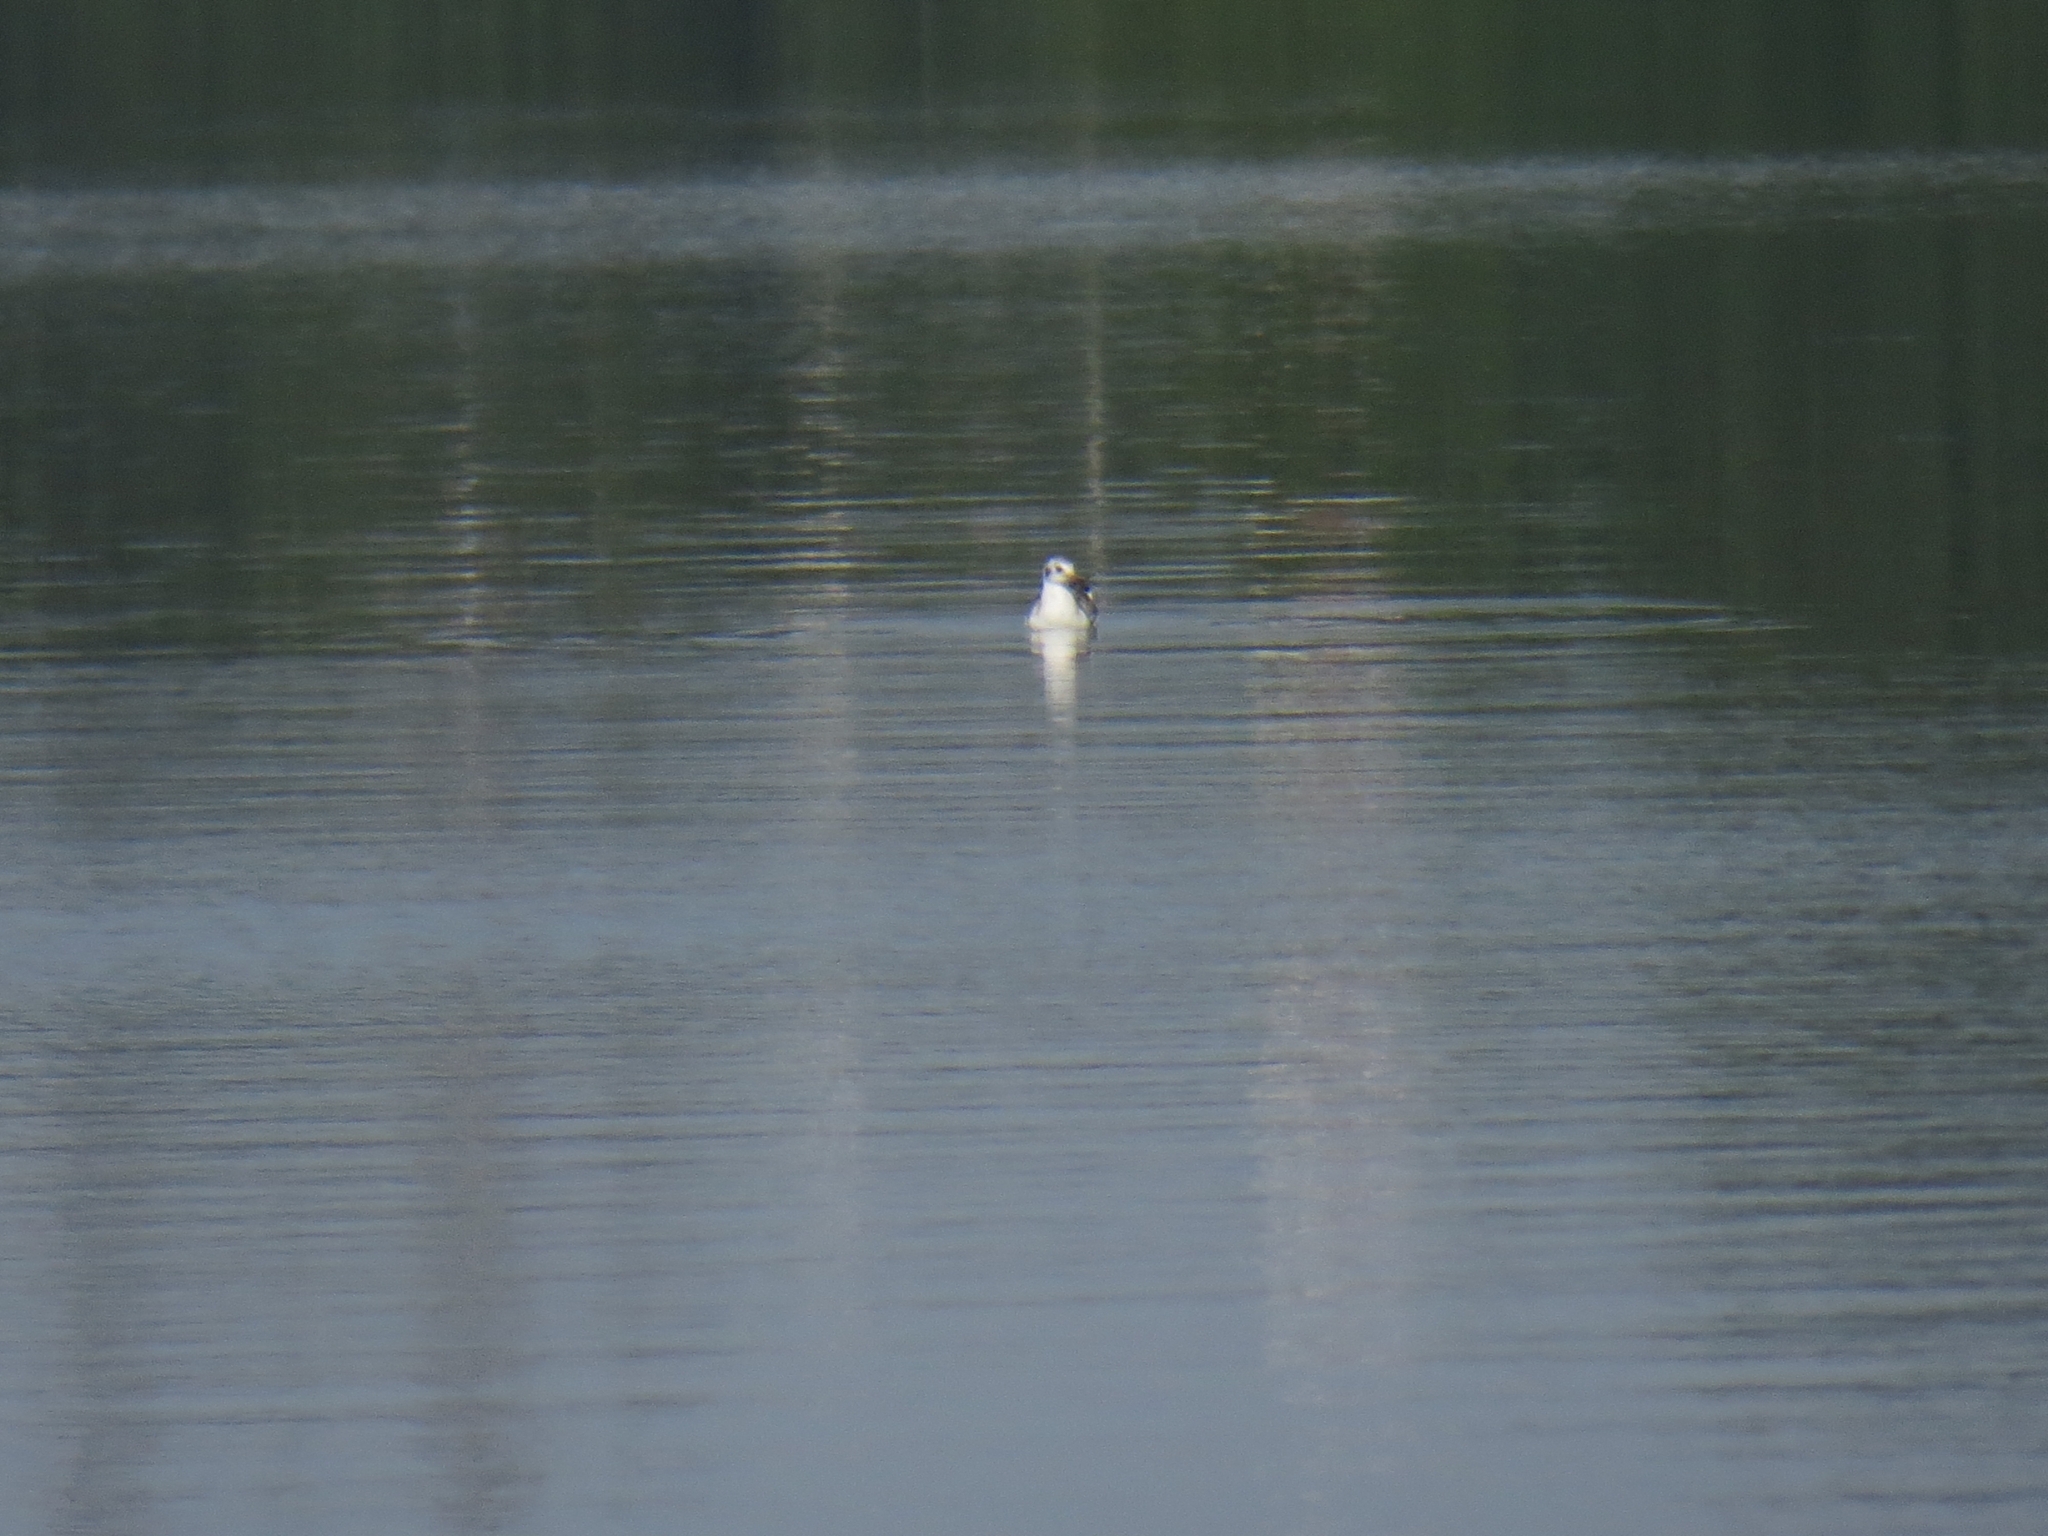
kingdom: Animalia
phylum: Chordata
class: Aves
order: Charadriiformes
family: Laridae
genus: Chroicocephalus
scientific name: Chroicocephalus ridibundus
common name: Black-headed gull
